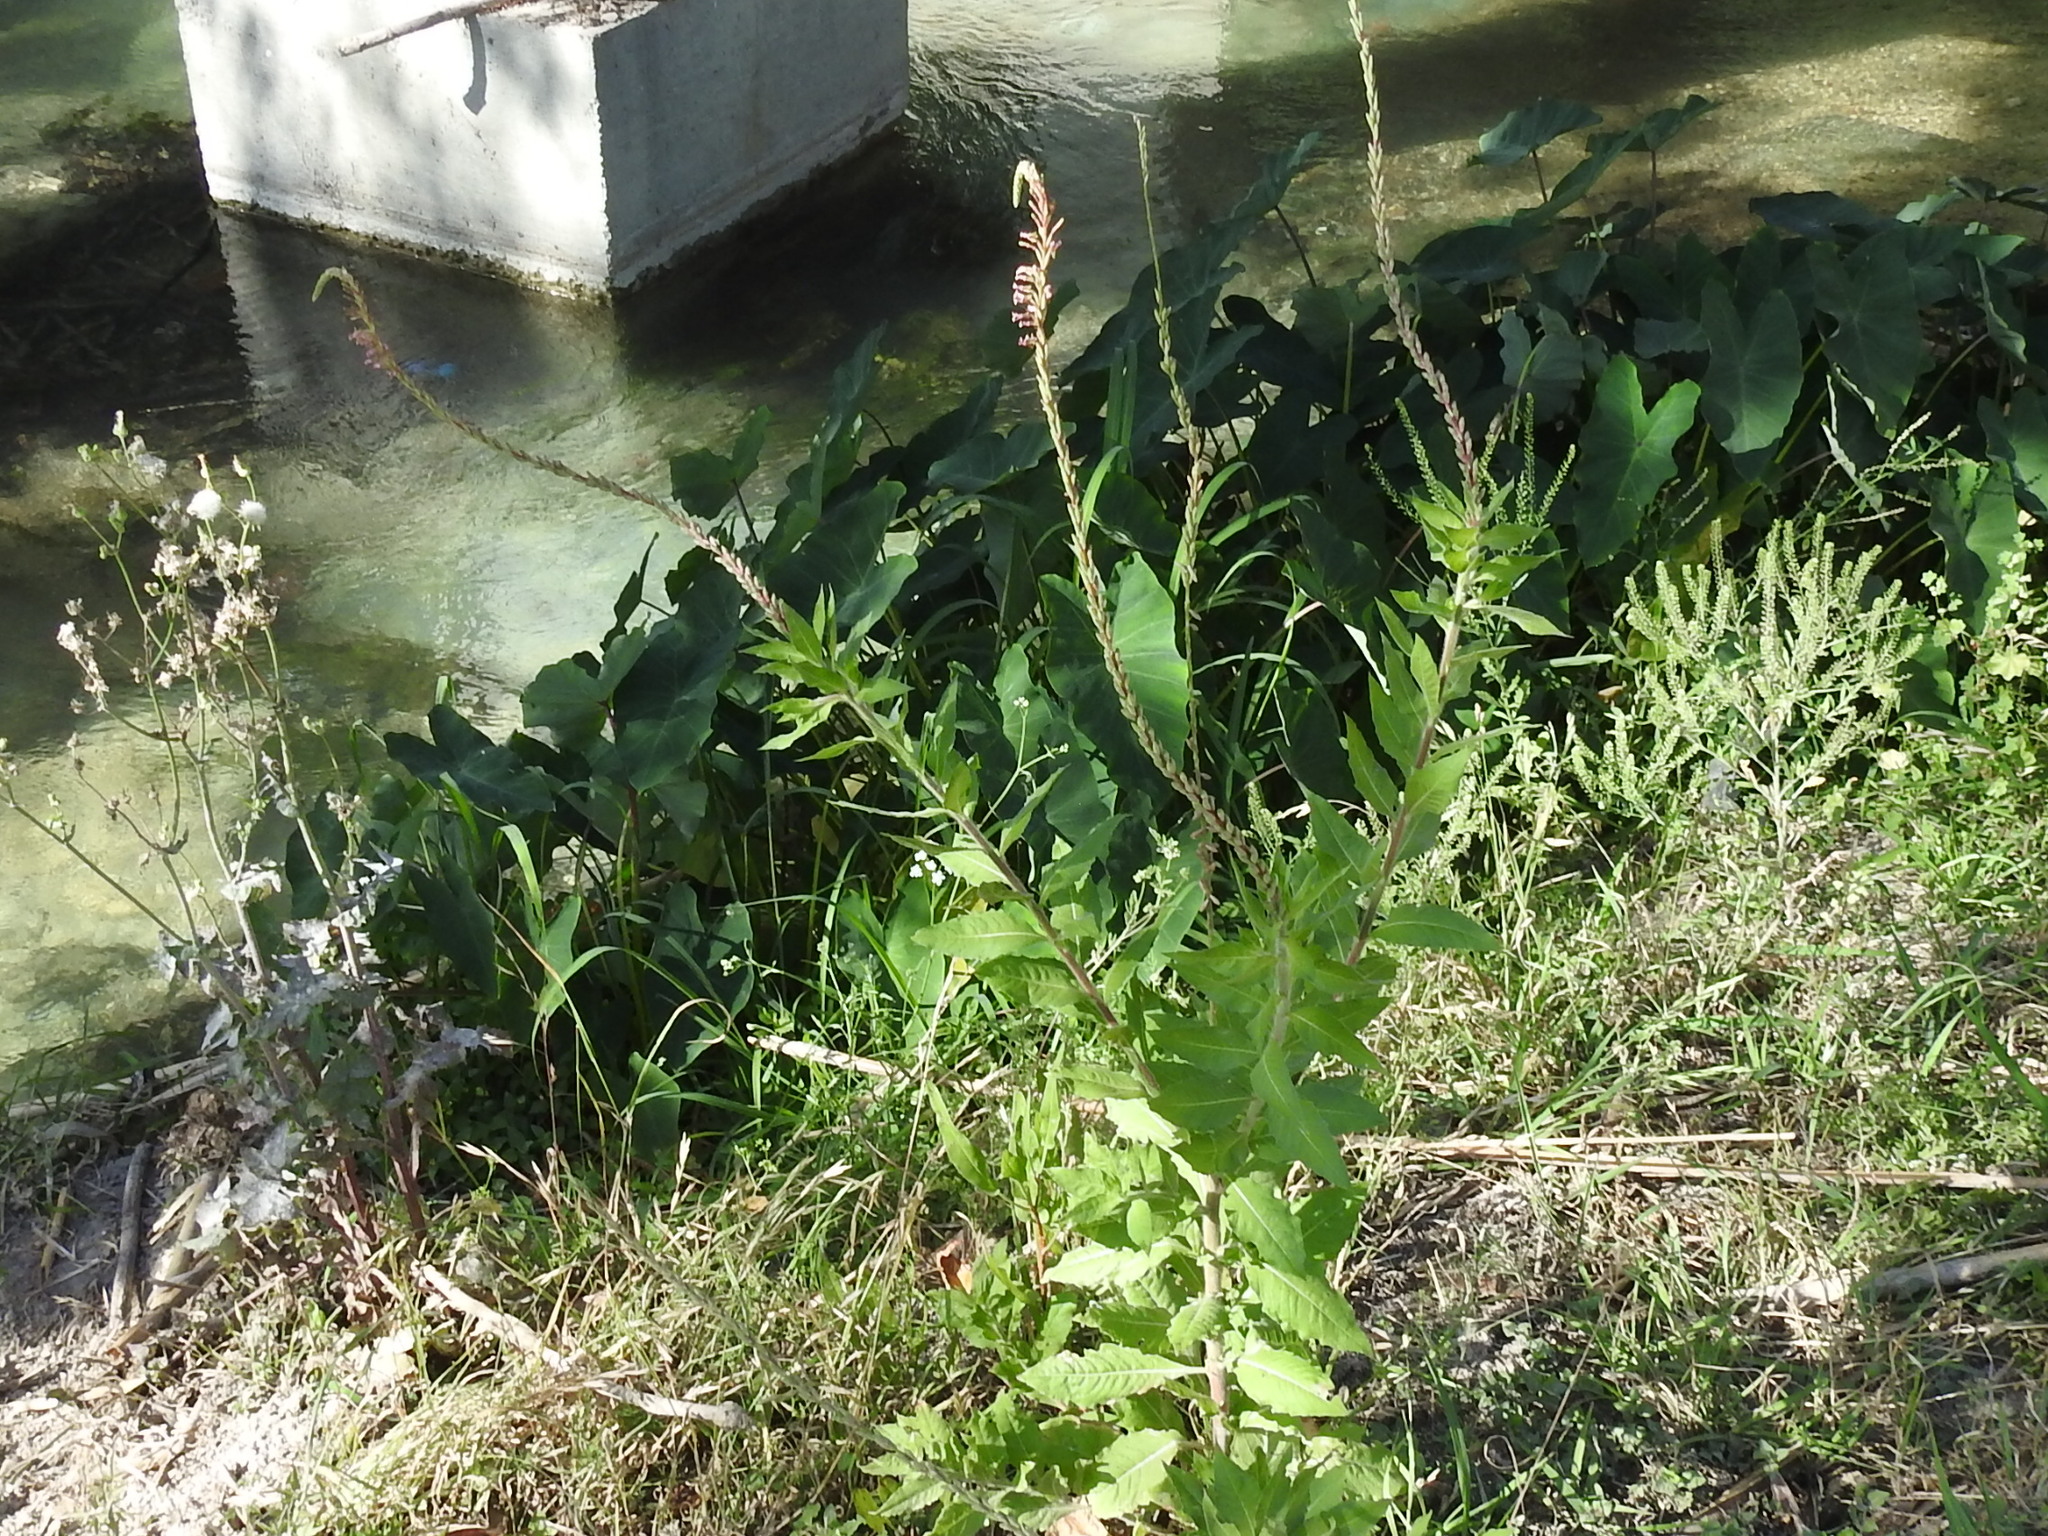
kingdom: Plantae
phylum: Tracheophyta
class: Magnoliopsida
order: Myrtales
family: Onagraceae
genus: Oenothera
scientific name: Oenothera curtiflora
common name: Velvetweed
